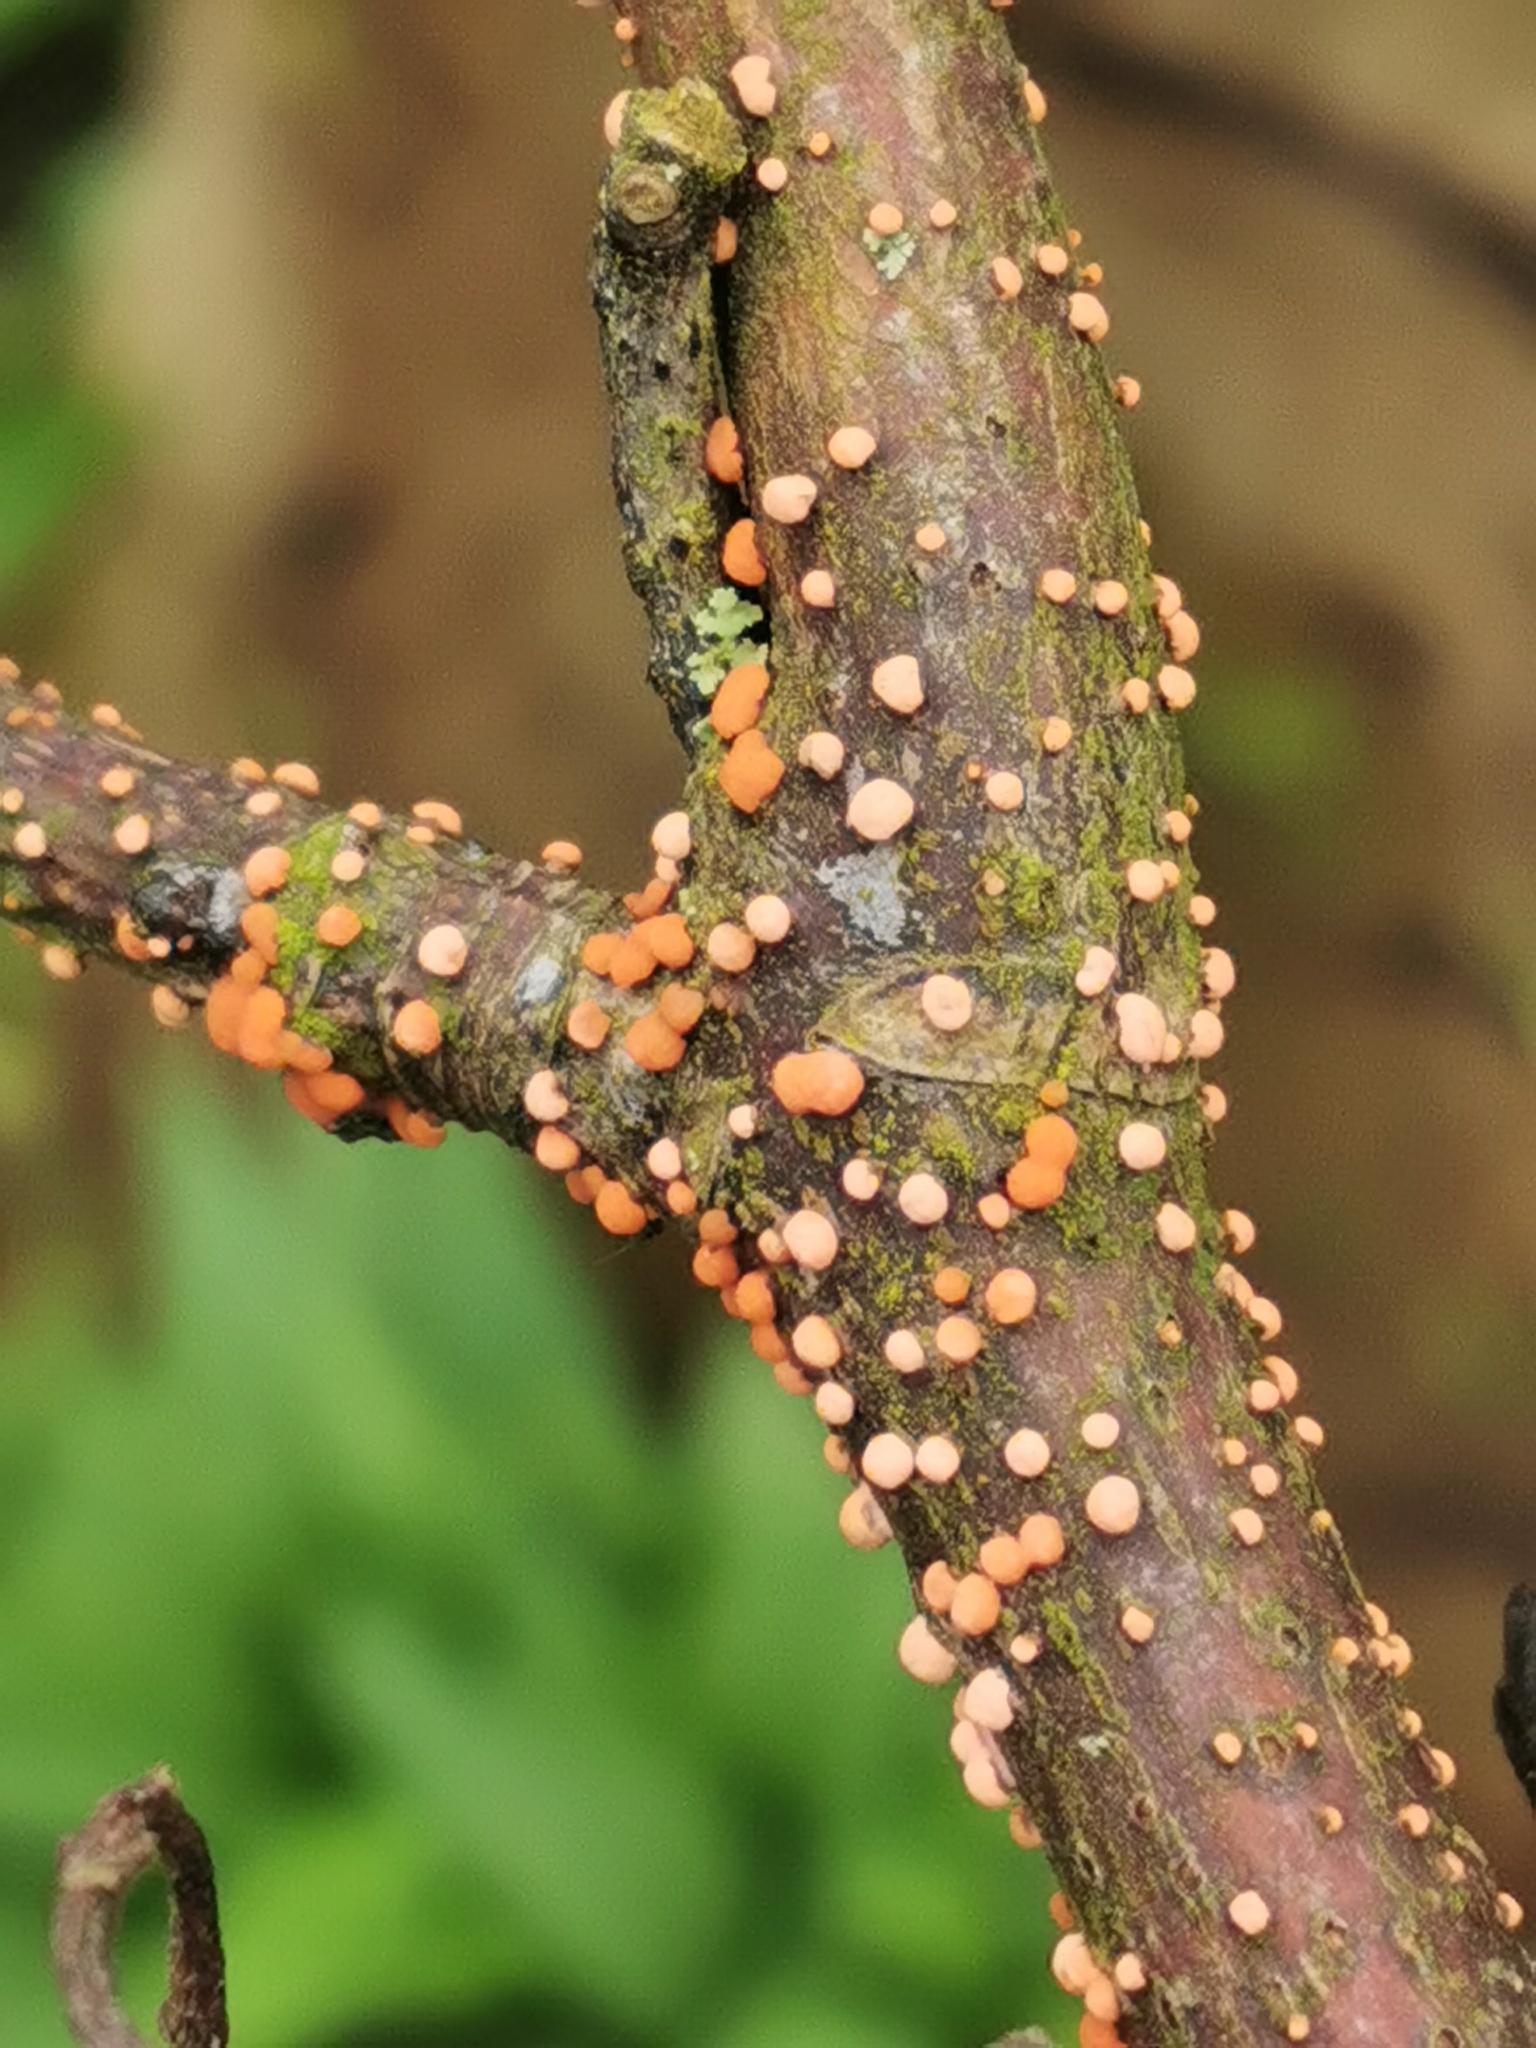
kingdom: Fungi
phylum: Ascomycota
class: Sordariomycetes
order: Hypocreales
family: Nectriaceae
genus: Nectria
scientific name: Nectria cinnabarina
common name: Coral spot
